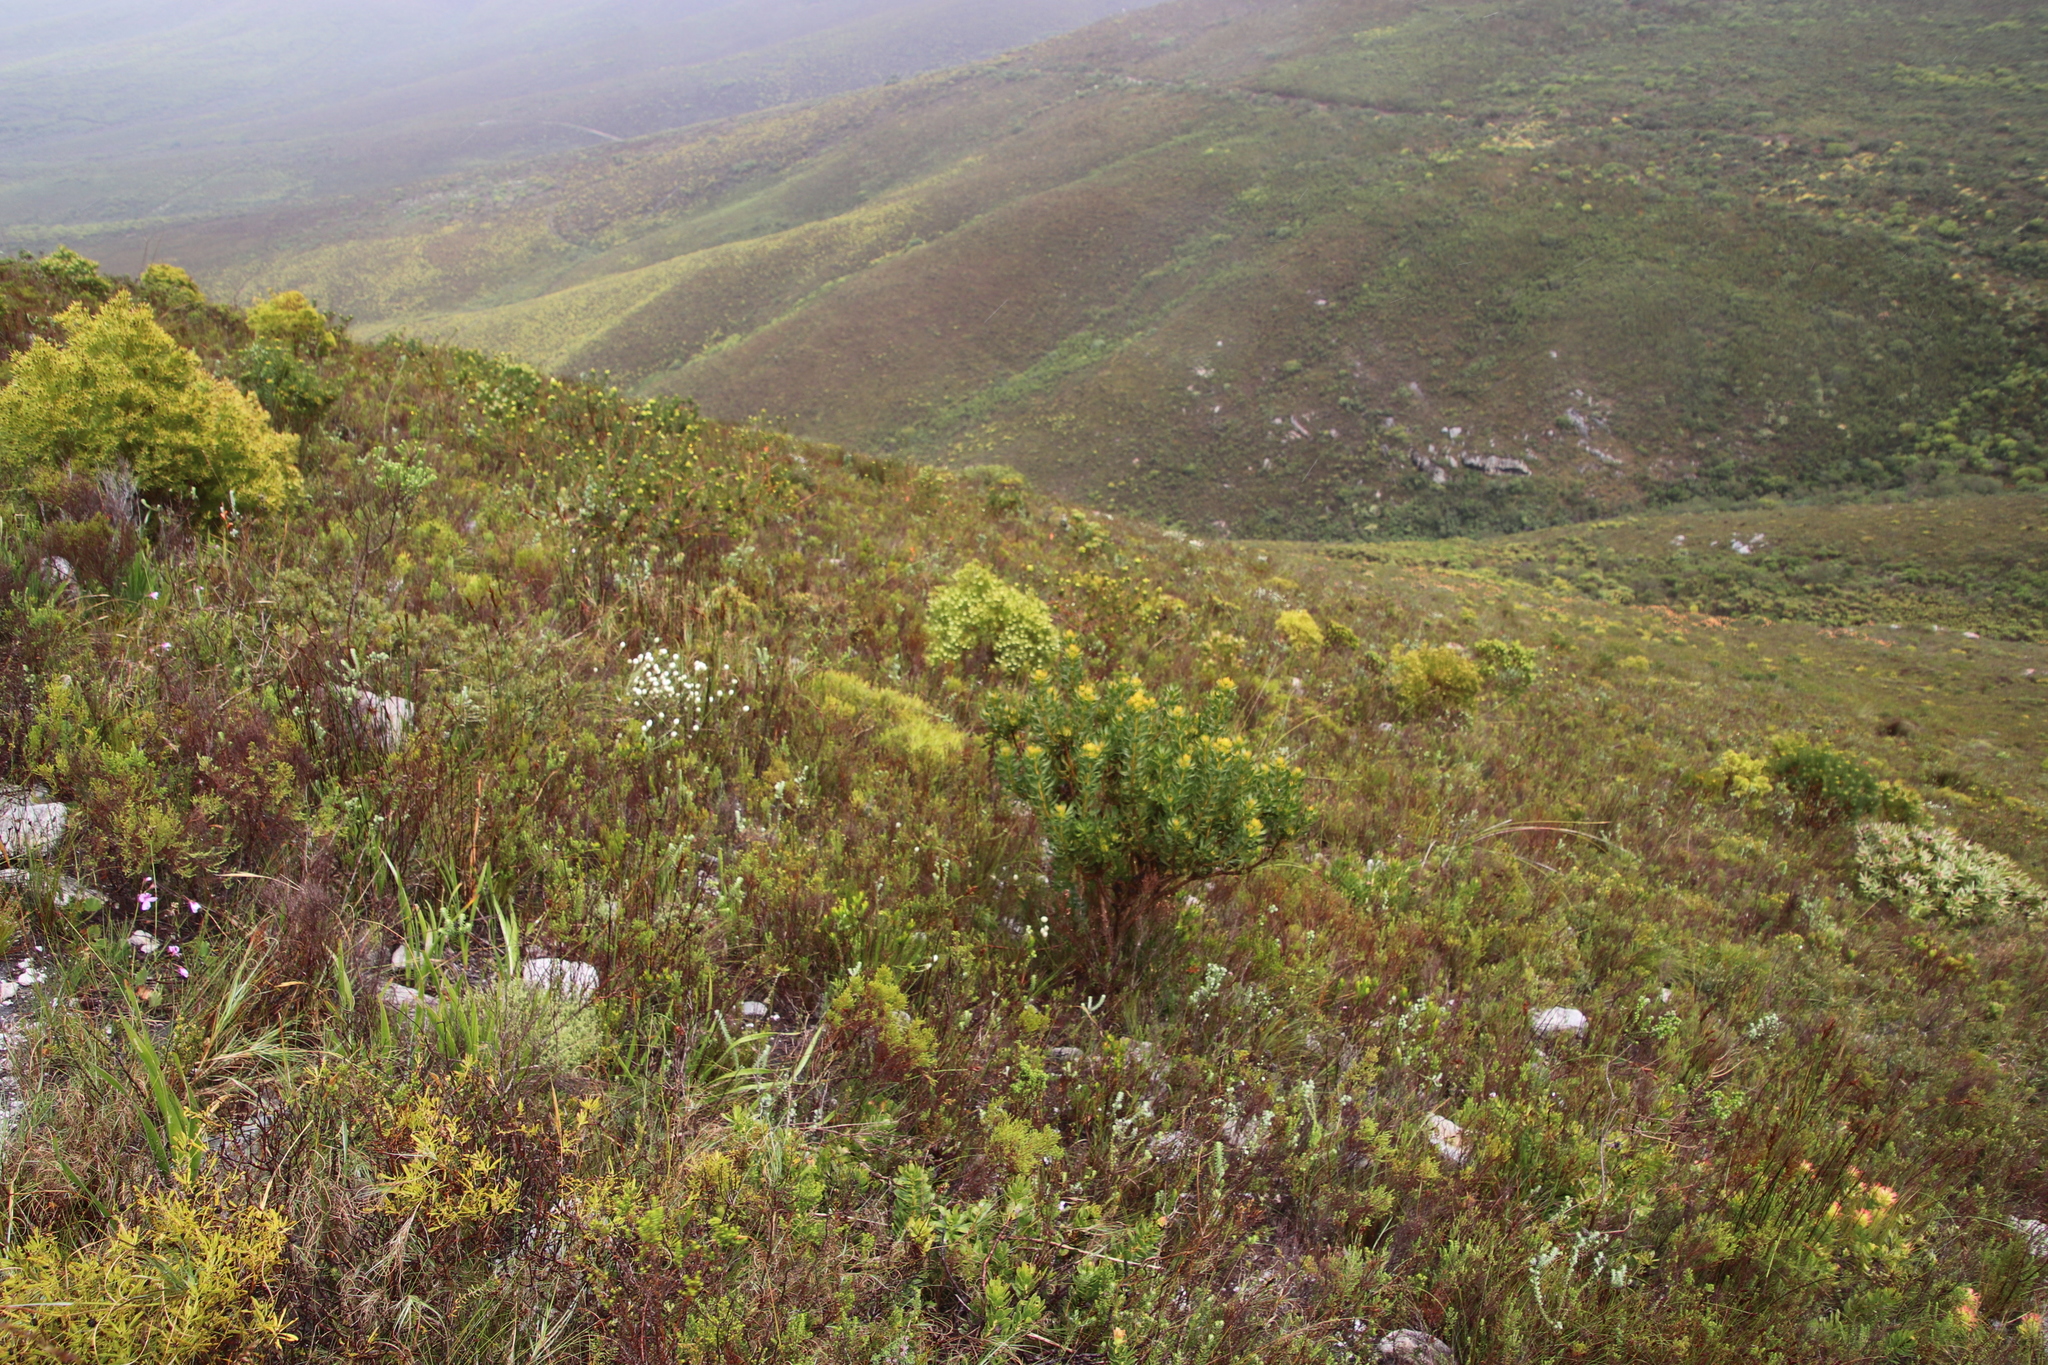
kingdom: Plantae
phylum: Tracheophyta
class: Magnoliopsida
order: Proteales
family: Proteaceae
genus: Aulax
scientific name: Aulax umbellata
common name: Broad-leaf featherbush
